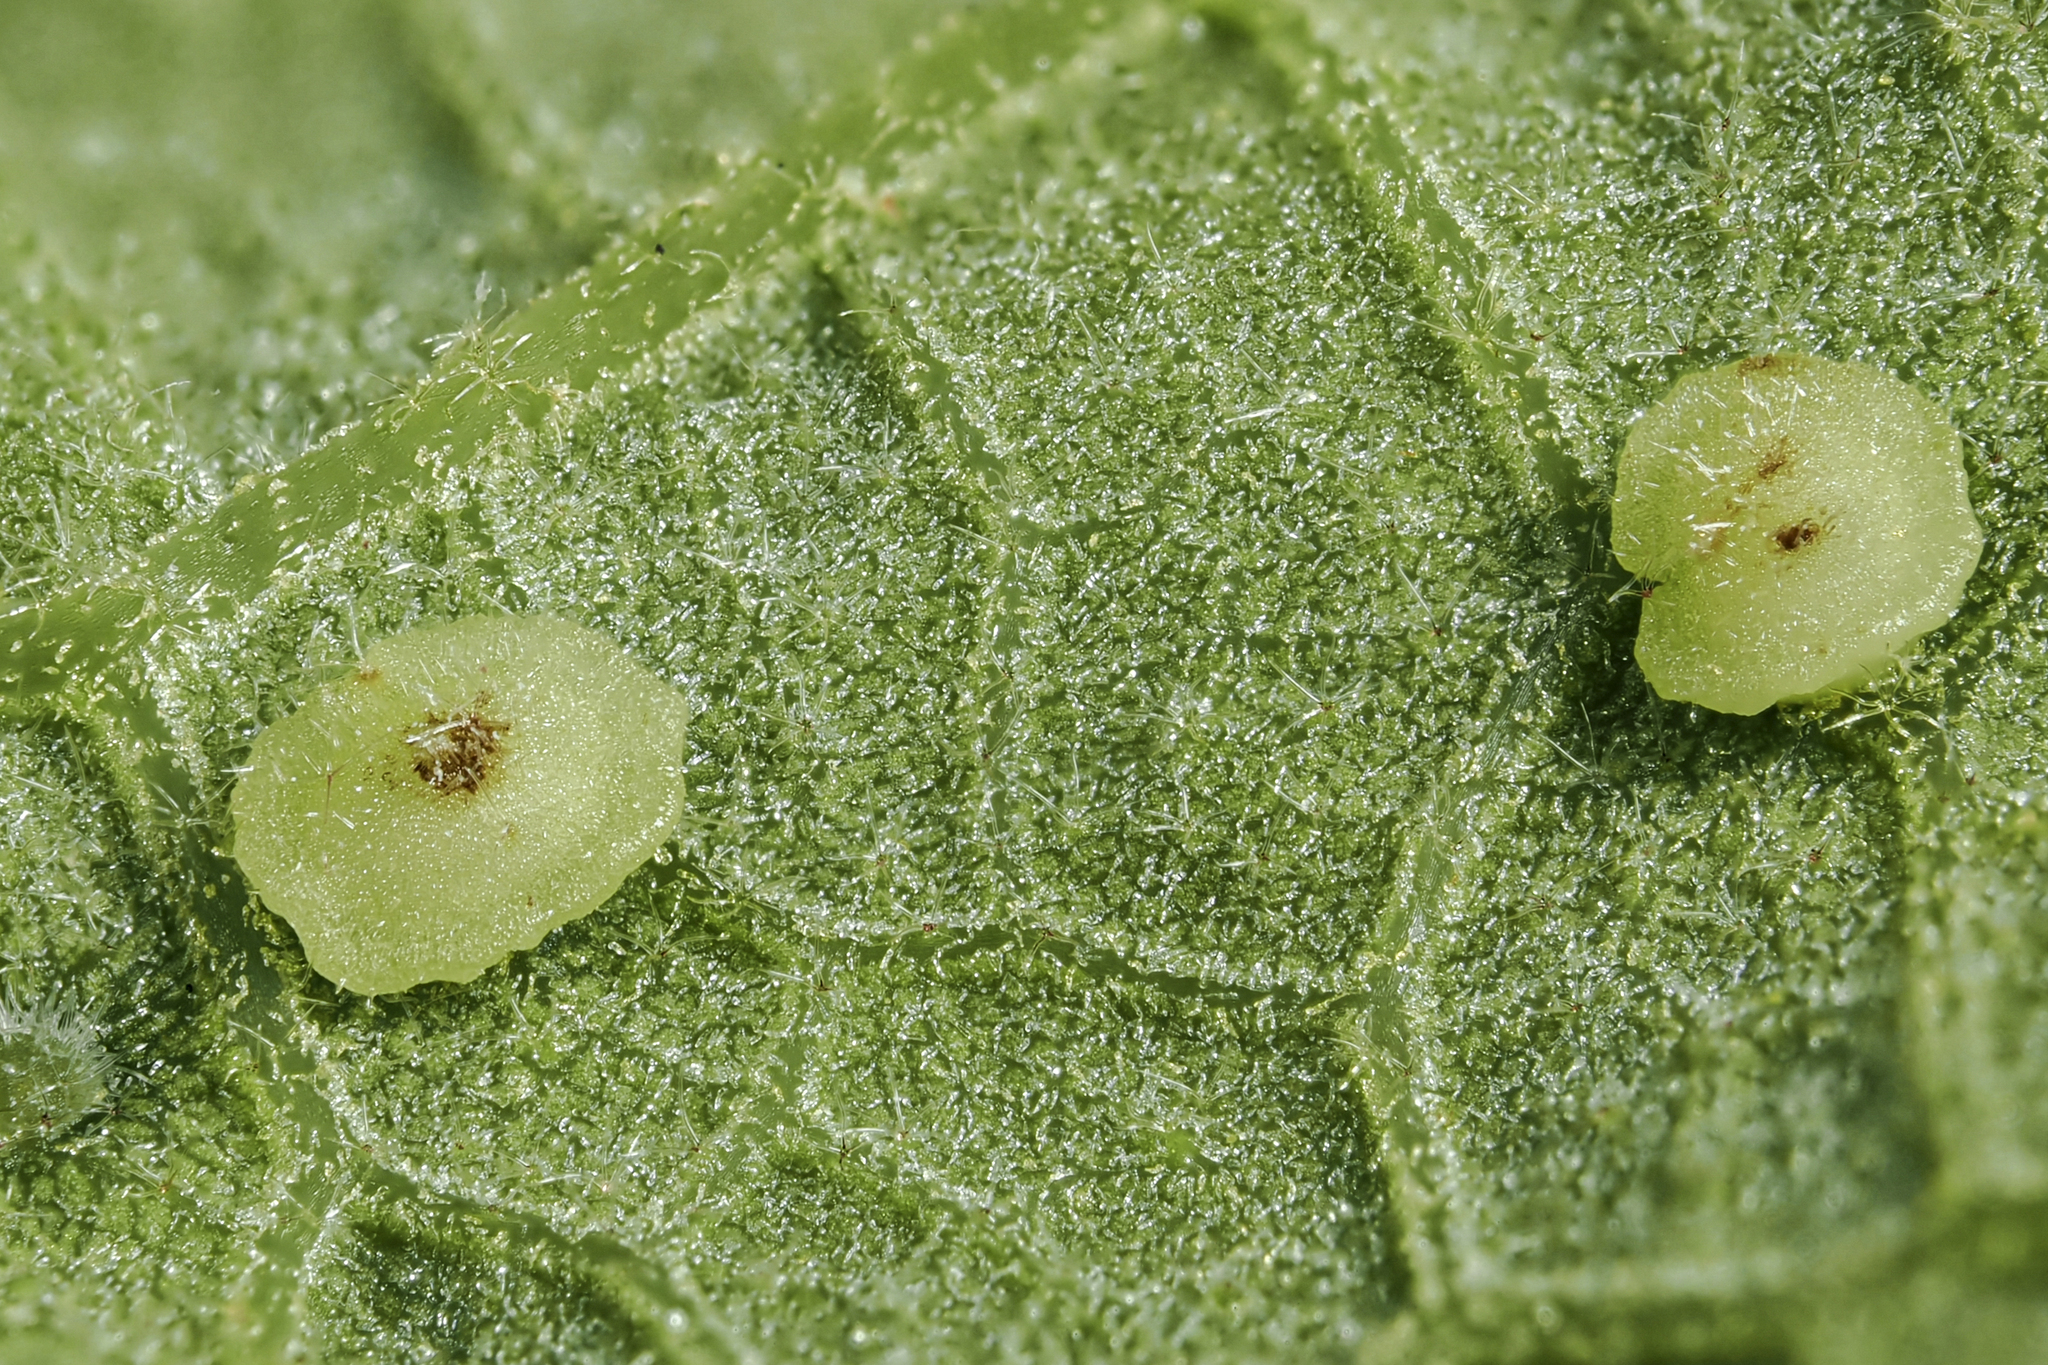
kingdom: Animalia
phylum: Arthropoda
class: Insecta
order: Hymenoptera
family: Cynipidae
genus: Neuroterus
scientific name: Neuroterus
